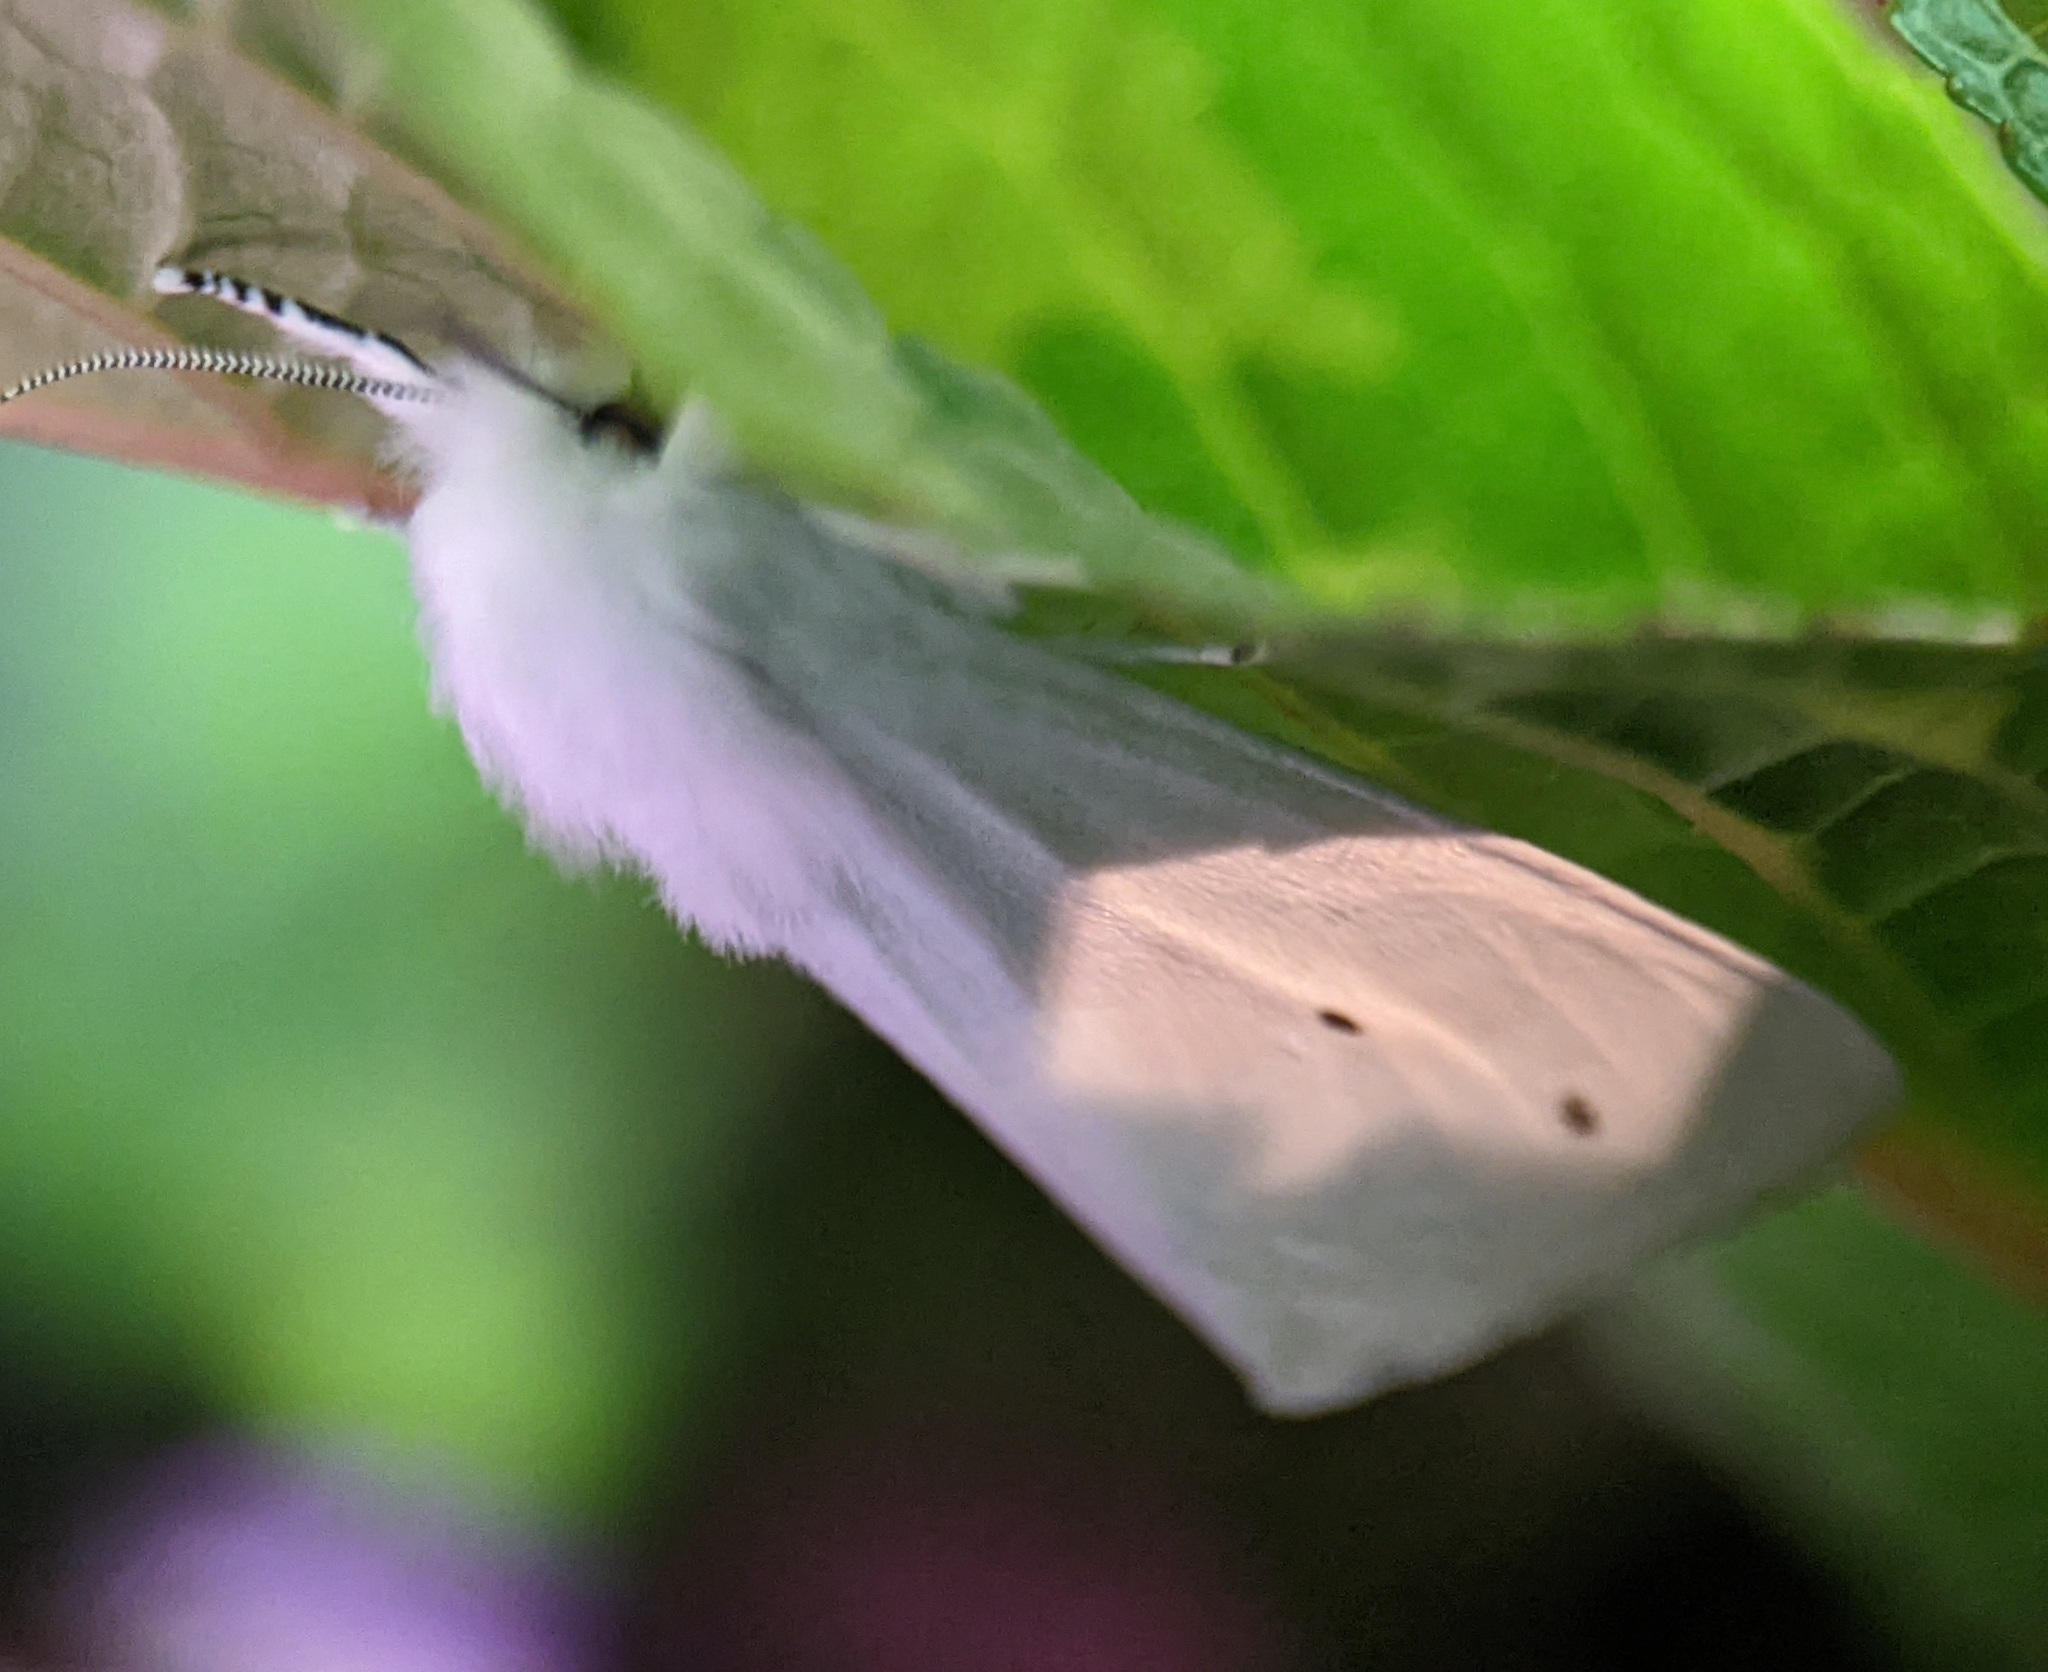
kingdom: Animalia
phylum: Arthropoda
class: Insecta
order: Lepidoptera
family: Erebidae
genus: Spilosoma
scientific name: Spilosoma virginica
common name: Virginia tiger moth
